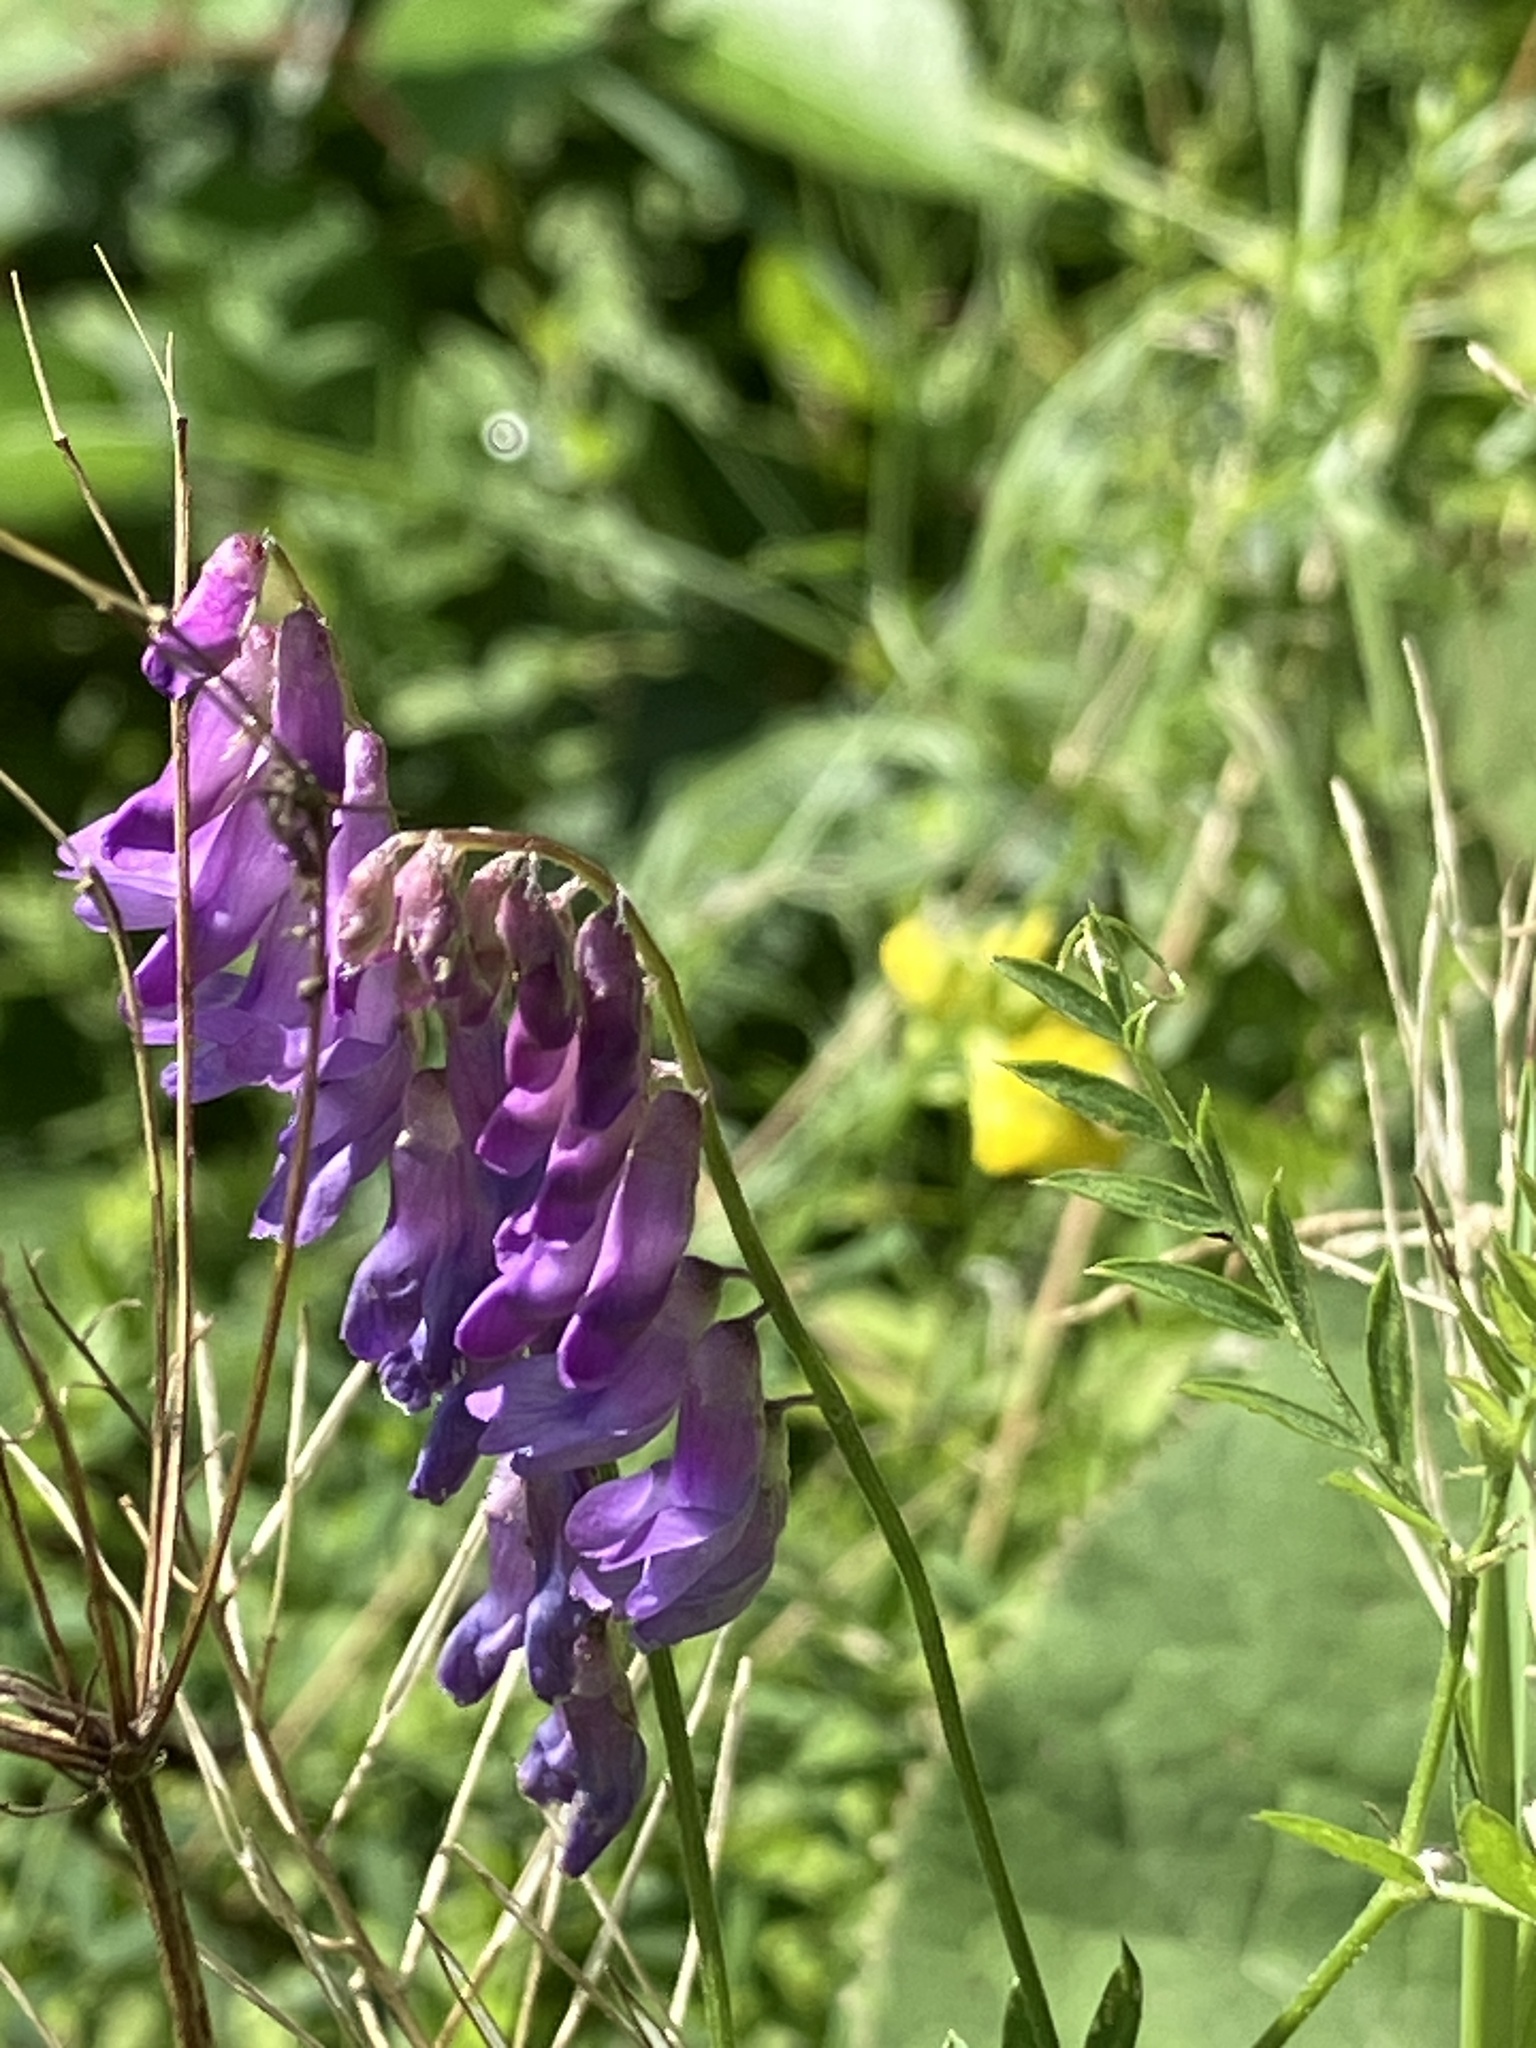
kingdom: Plantae
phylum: Tracheophyta
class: Magnoliopsida
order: Fabales
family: Fabaceae
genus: Vicia
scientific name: Vicia cracca
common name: Bird vetch
